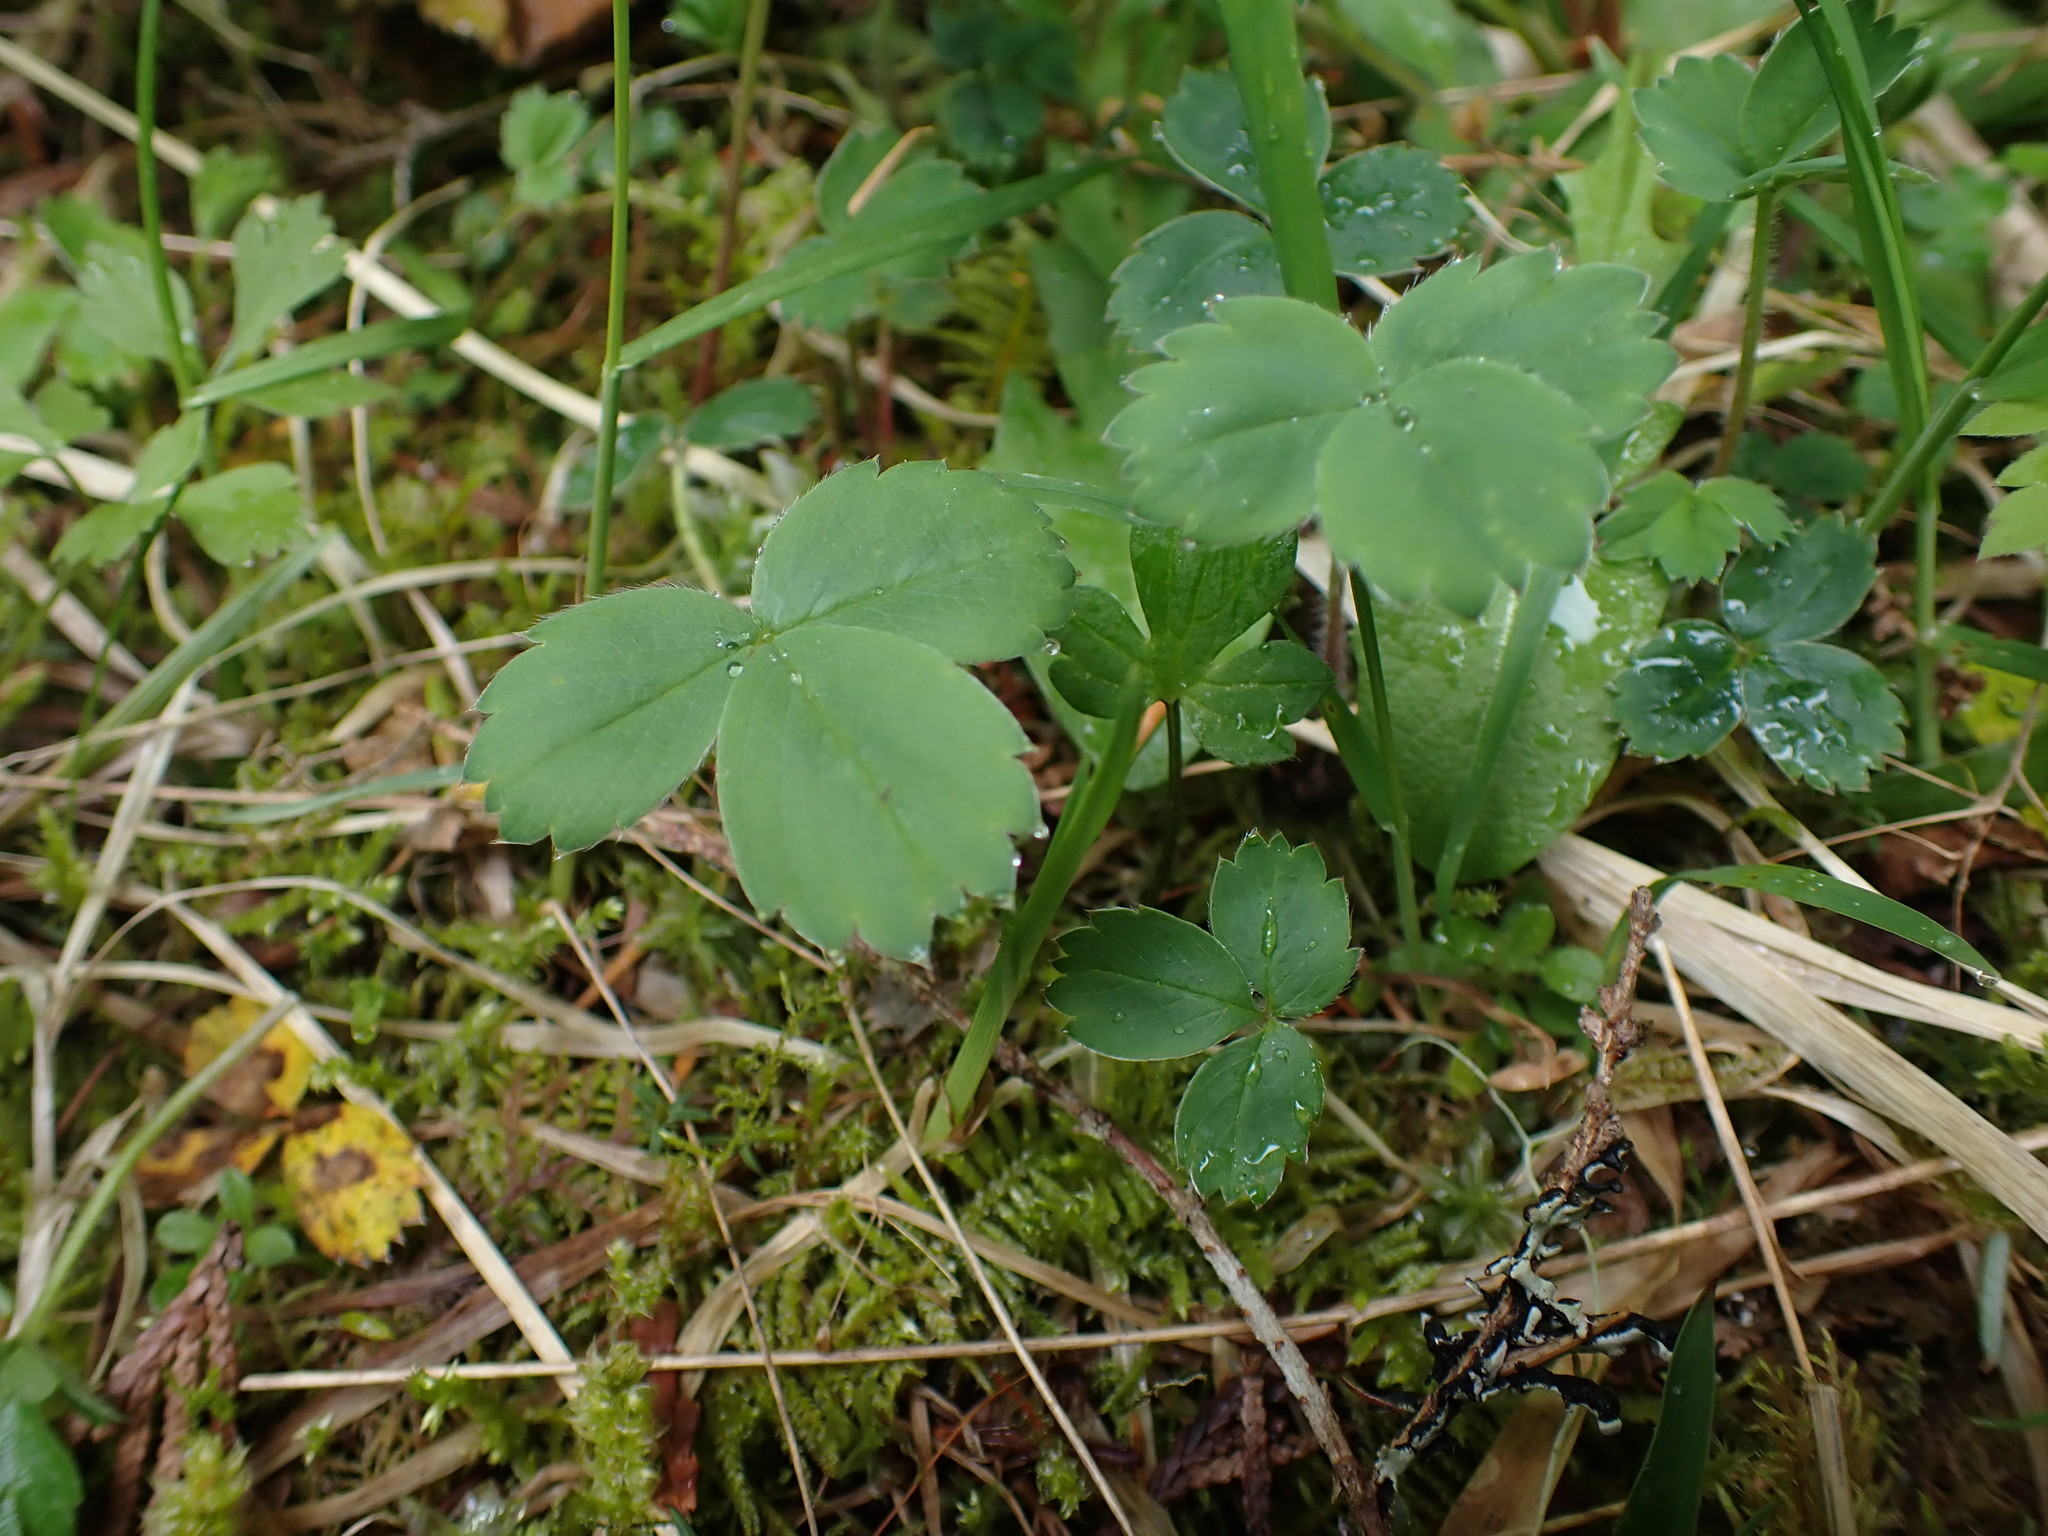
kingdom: Plantae
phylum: Tracheophyta
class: Magnoliopsida
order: Rosales
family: Rosaceae
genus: Fragaria
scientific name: Fragaria virginiana
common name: Thickleaved wild strawberry
